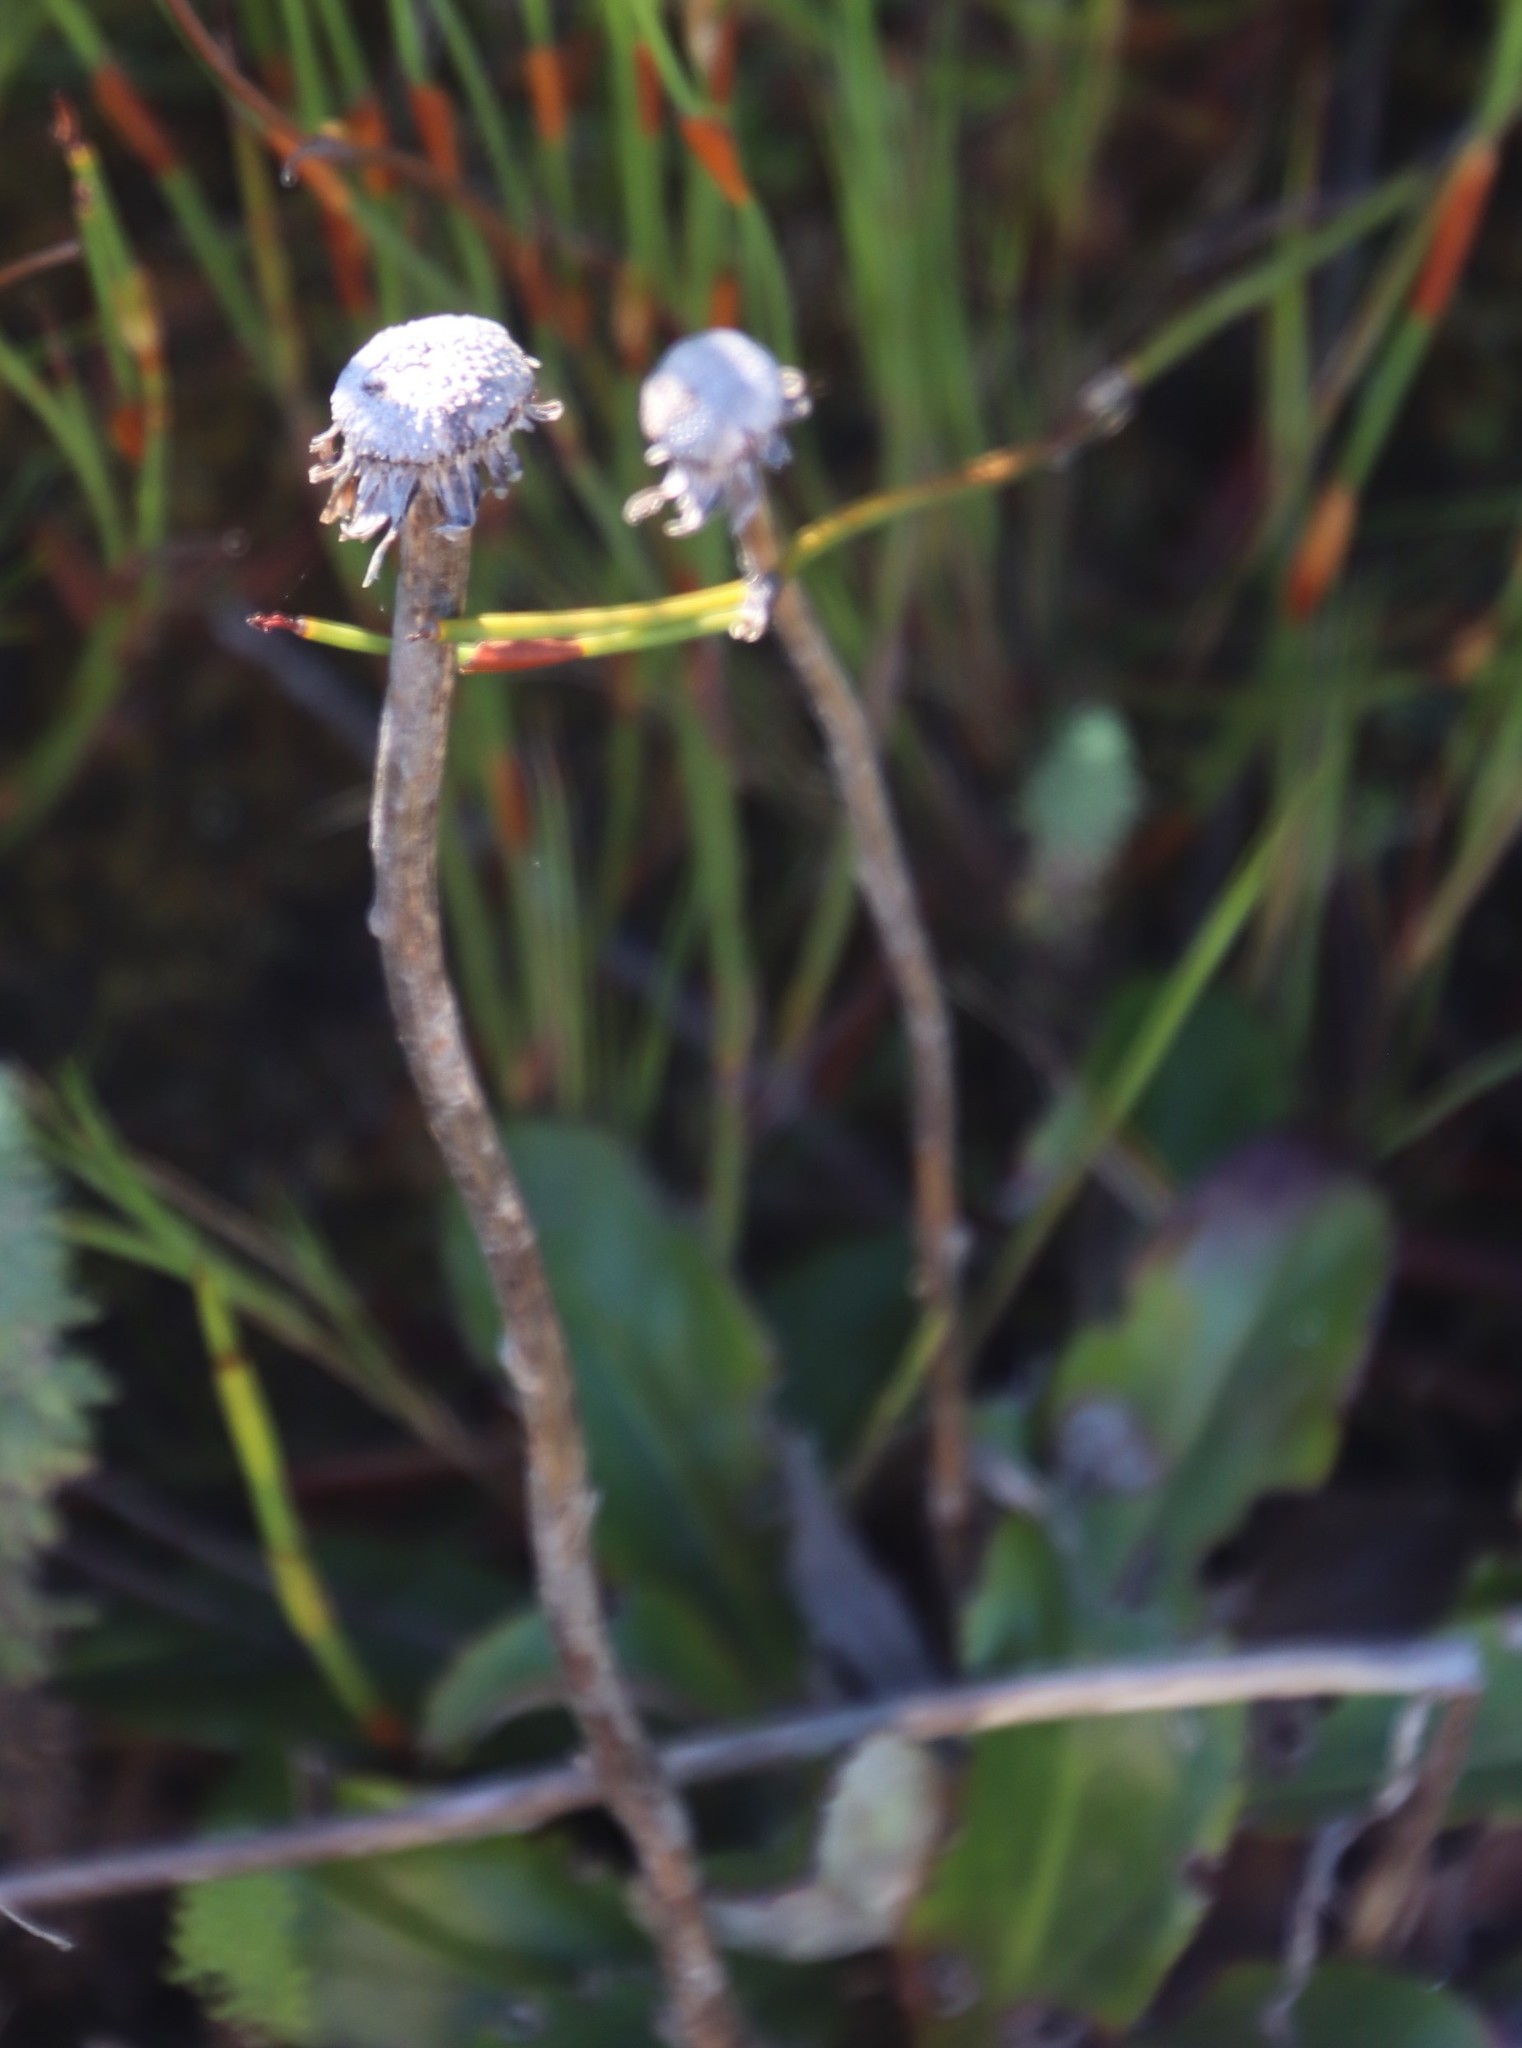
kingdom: Plantae
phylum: Tracheophyta
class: Magnoliopsida
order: Asterales
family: Asteraceae
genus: Mairia
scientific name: Mairia robusta
